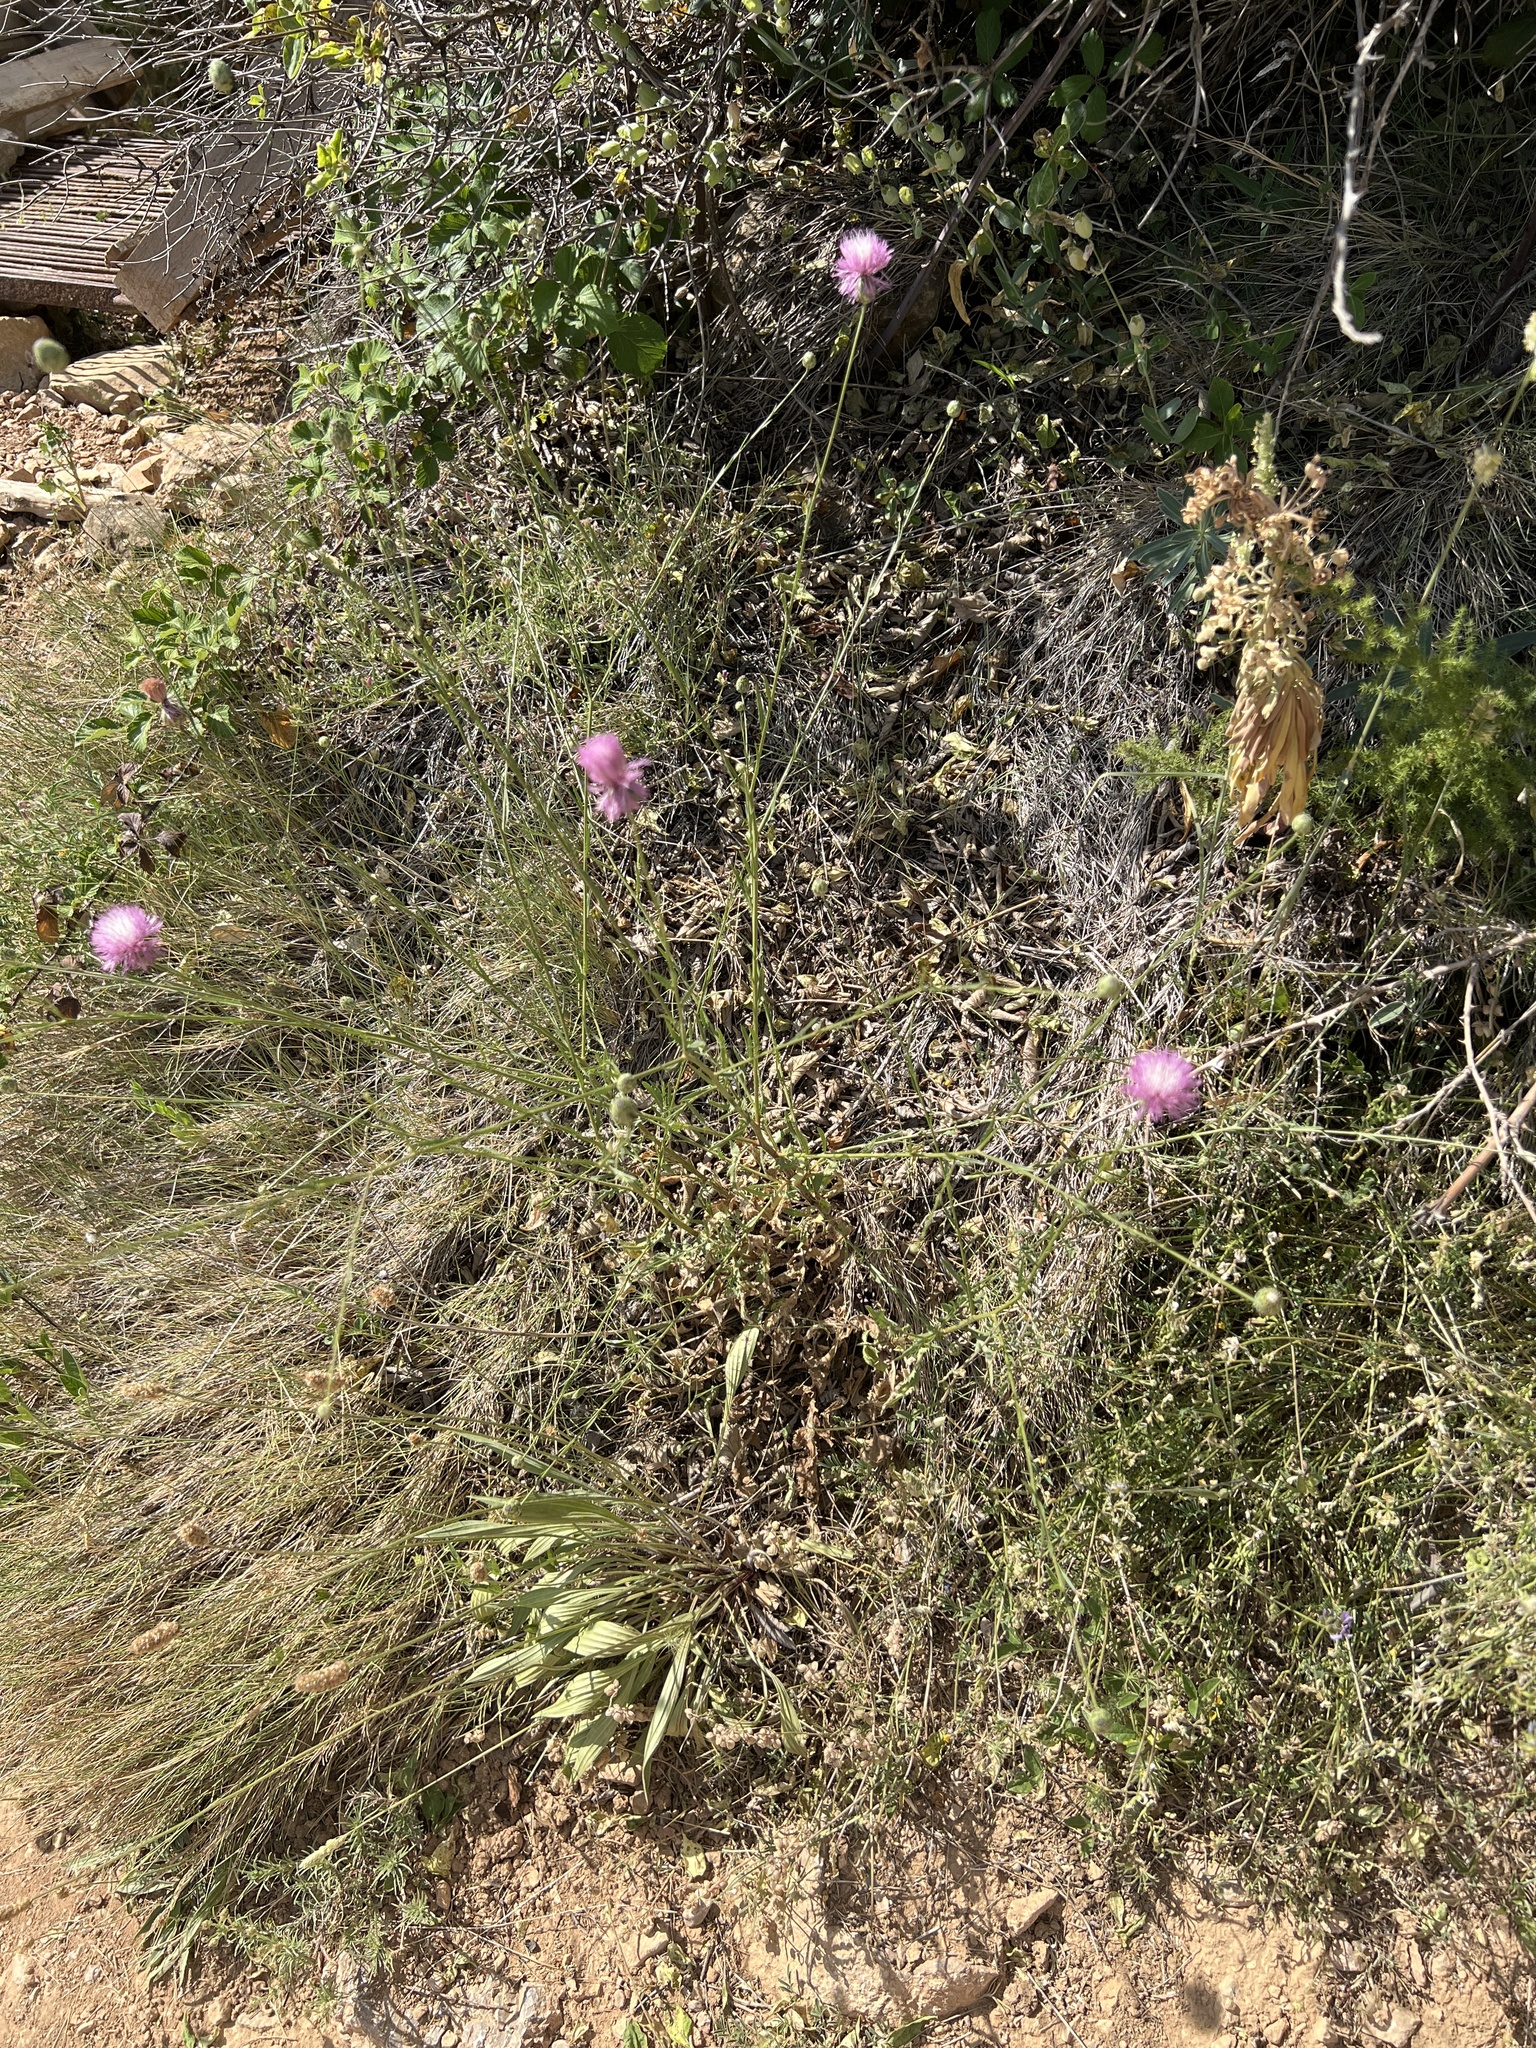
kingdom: Plantae
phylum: Tracheophyta
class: Magnoliopsida
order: Asterales
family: Asteraceae
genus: Mantisalca
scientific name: Mantisalca salmantica
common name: Dagger flower
